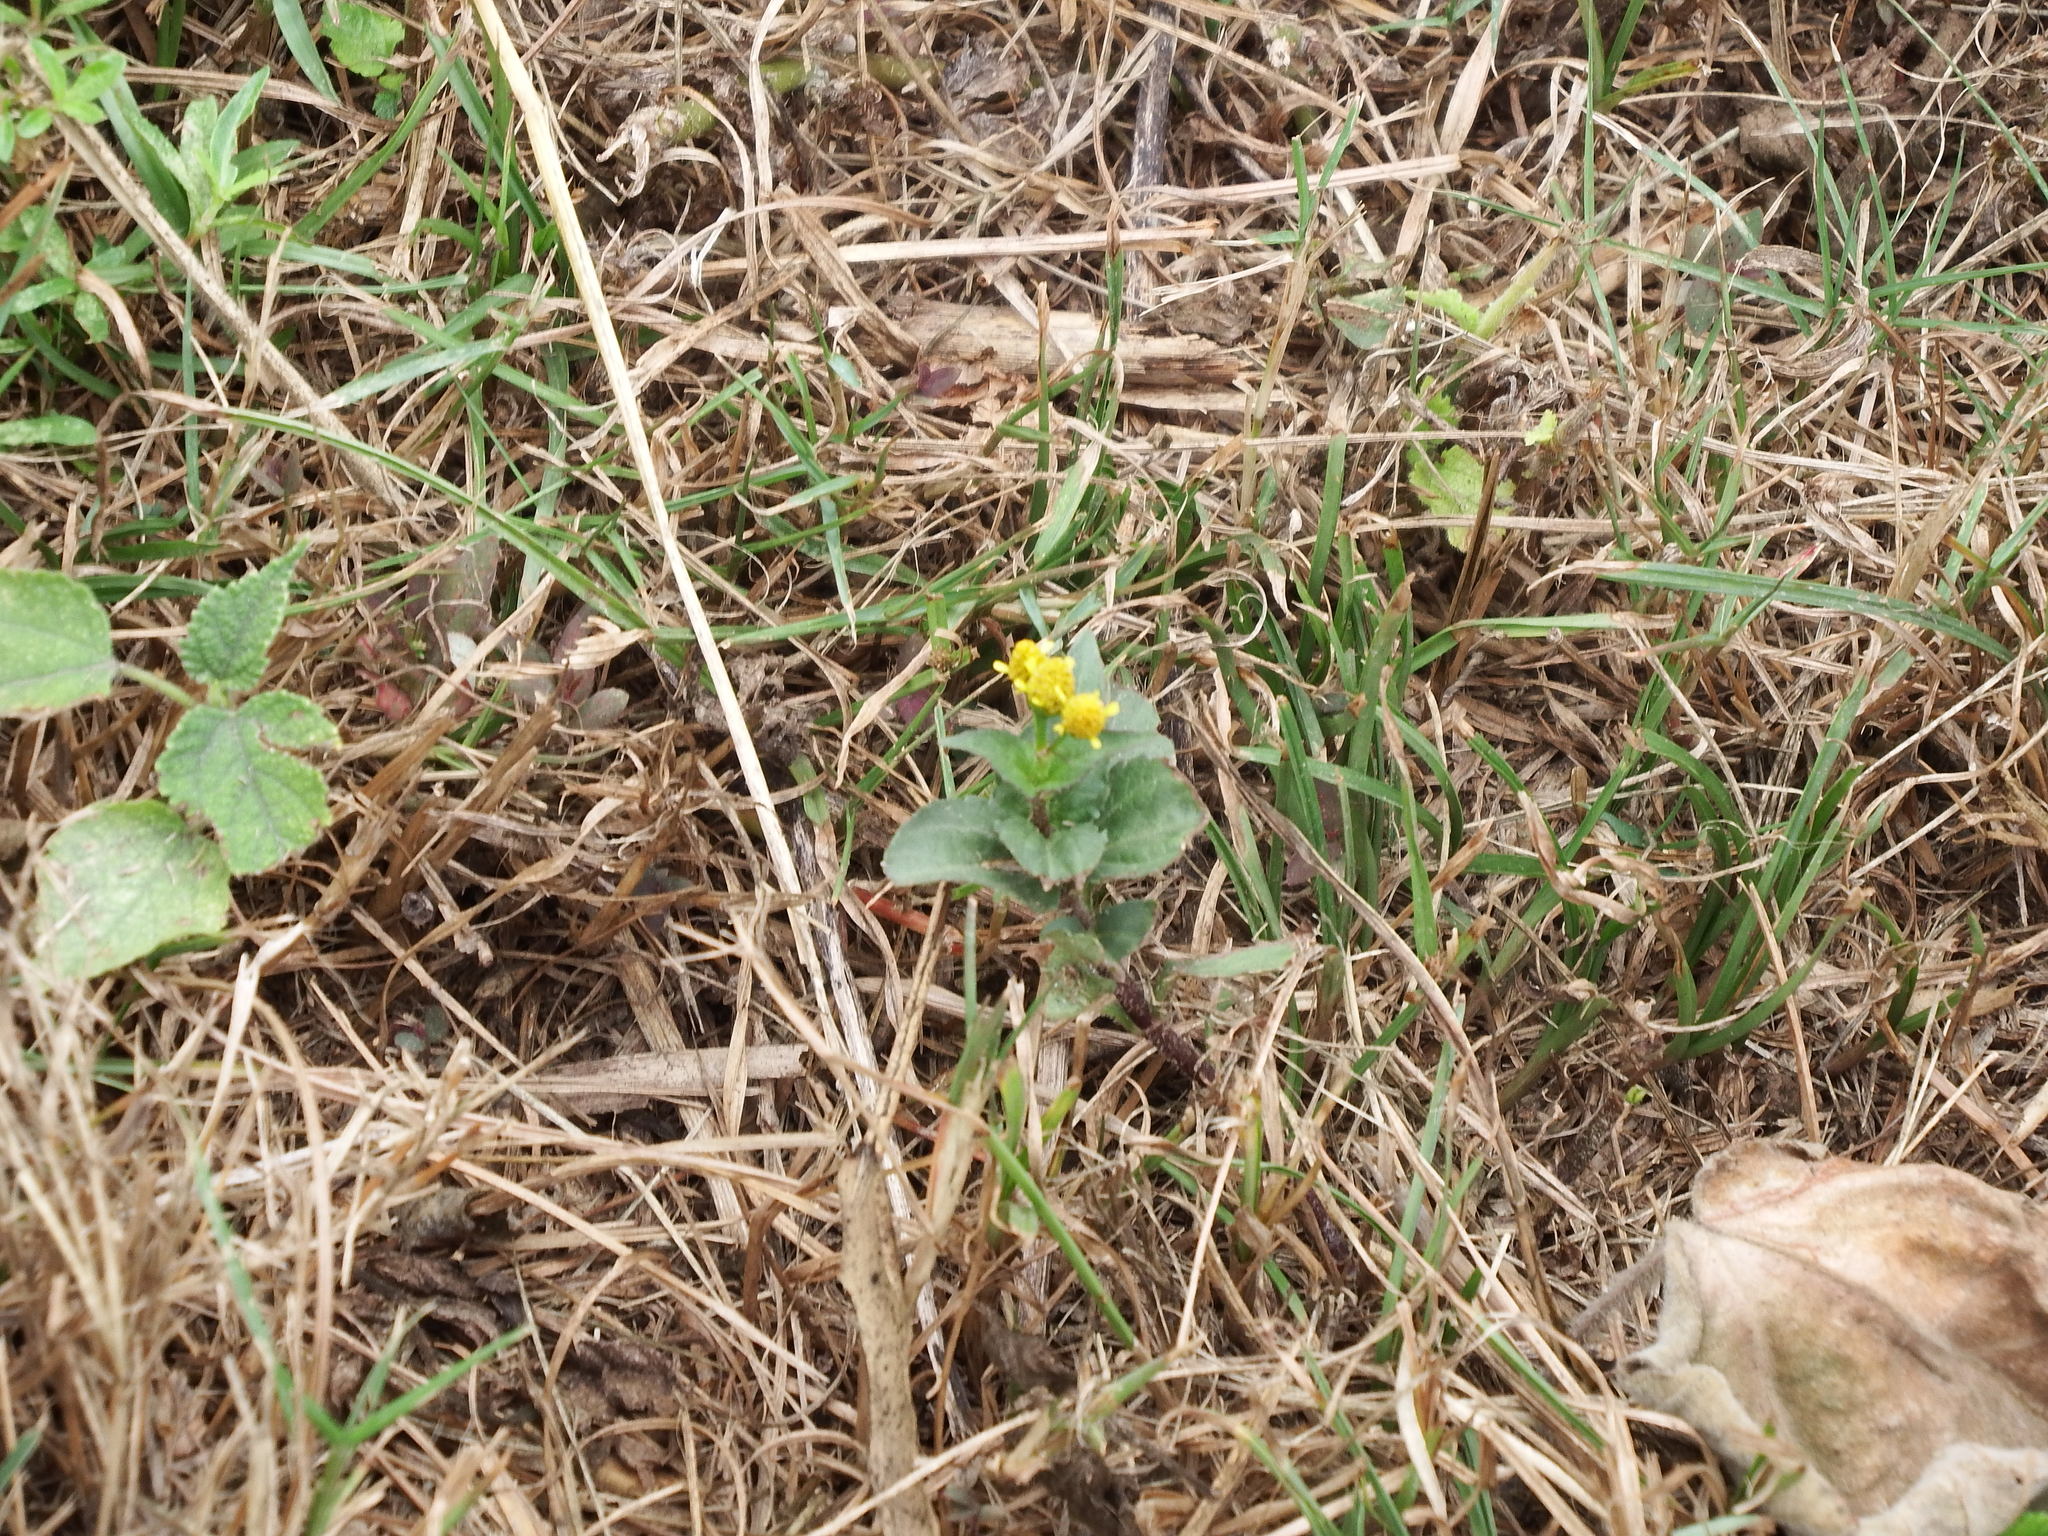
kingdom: Plantae
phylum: Tracheophyta
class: Magnoliopsida
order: Asterales
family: Asteraceae
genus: Acmella
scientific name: Acmella uliginosa
